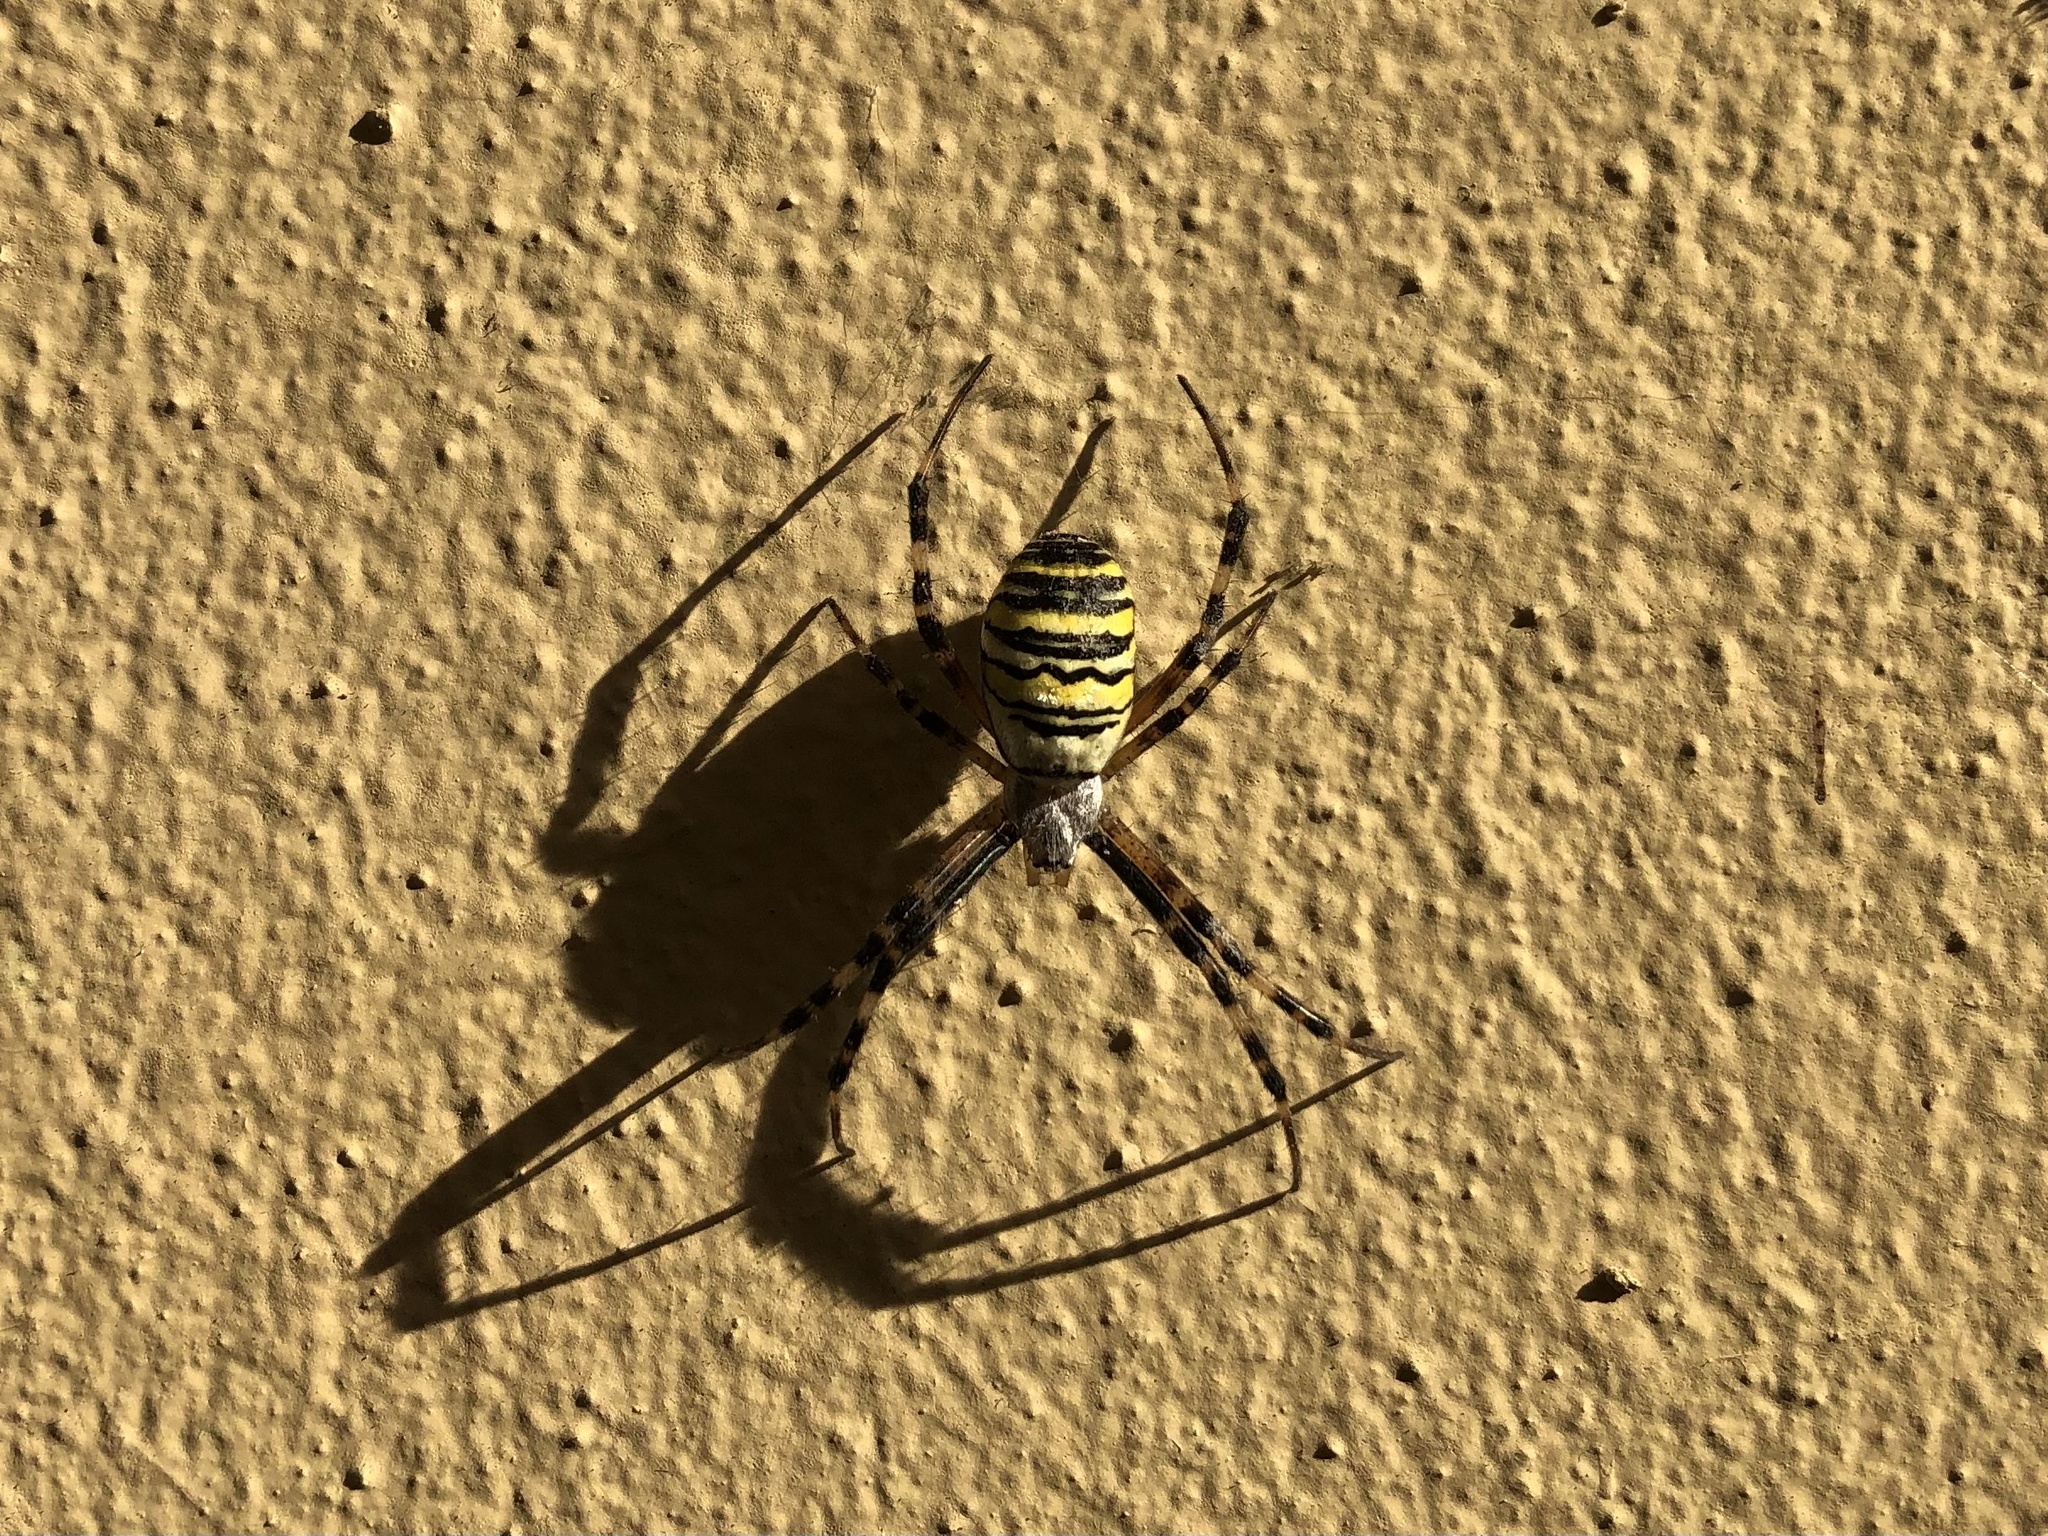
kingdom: Animalia
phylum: Arthropoda
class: Arachnida
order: Araneae
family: Araneidae
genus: Argiope
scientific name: Argiope bruennichi
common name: Wasp spider
